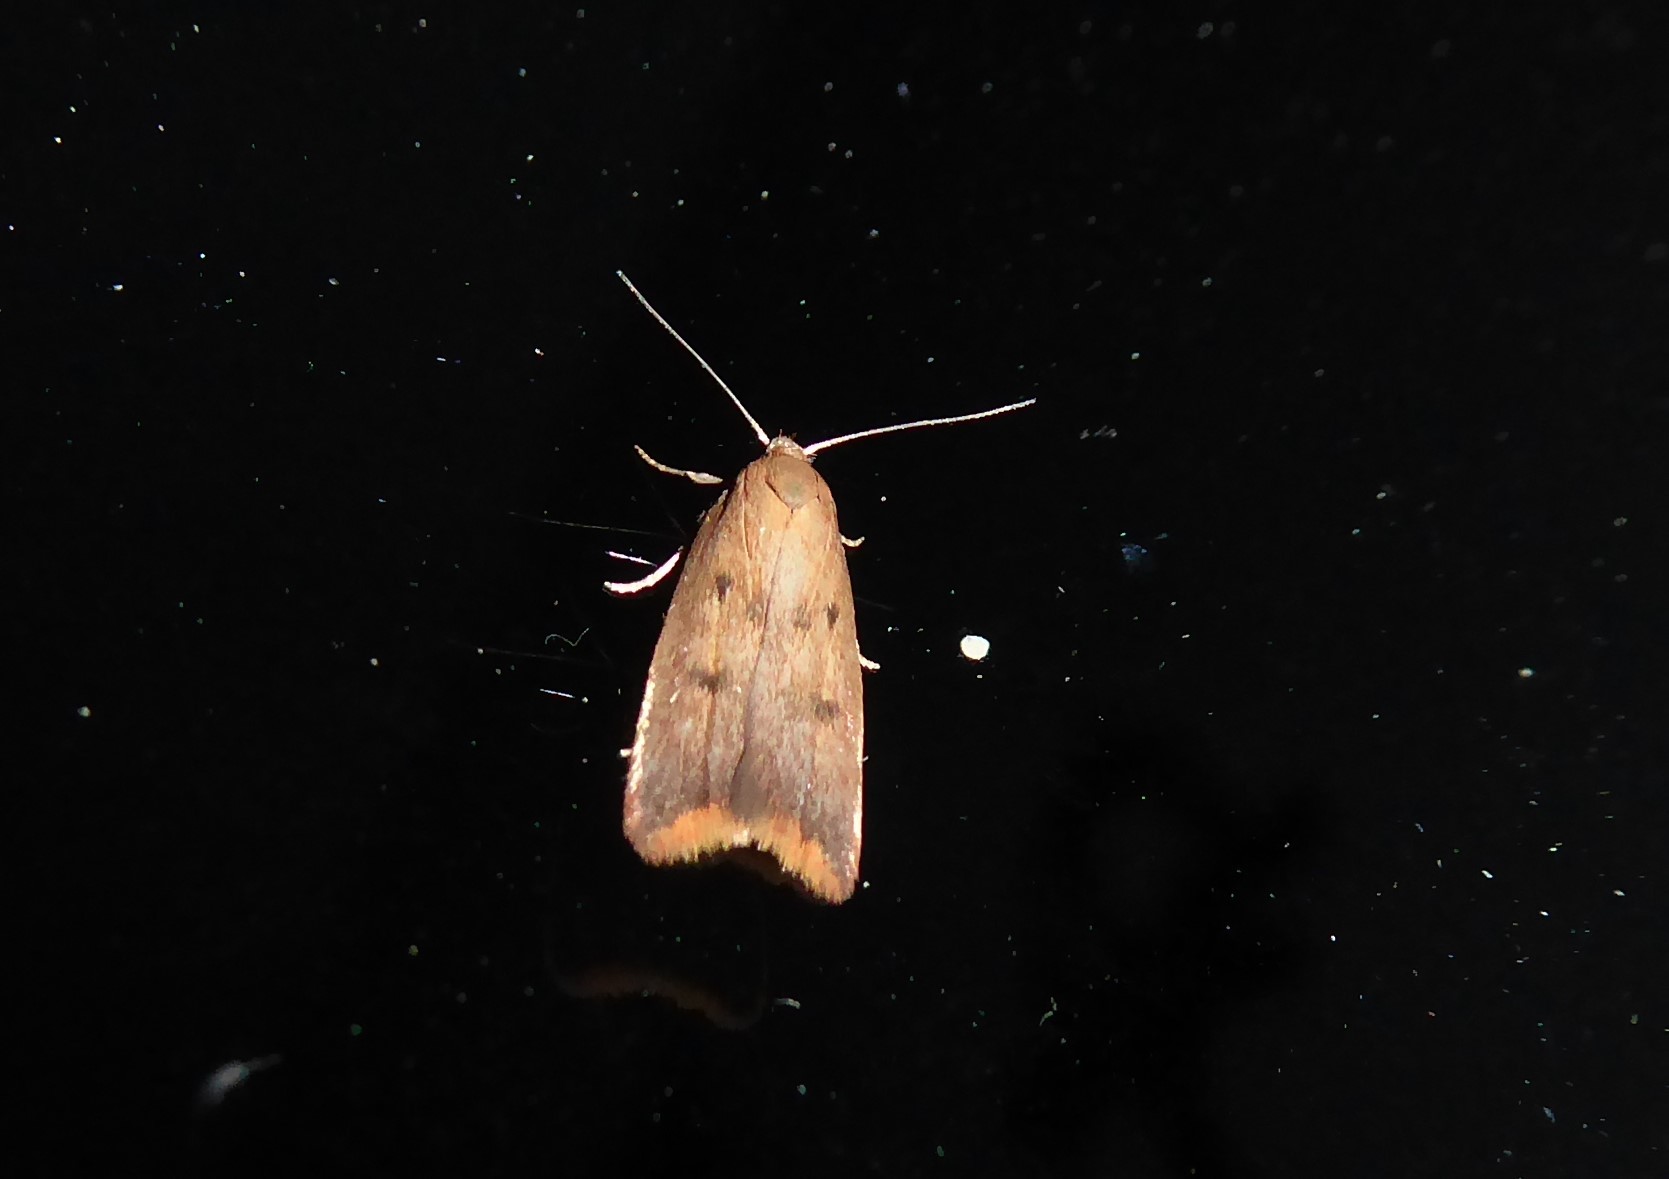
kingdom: Animalia
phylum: Arthropoda
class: Insecta
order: Lepidoptera
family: Oecophoridae
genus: Tachystola
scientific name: Tachystola acroxantha
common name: Ruddy streak
